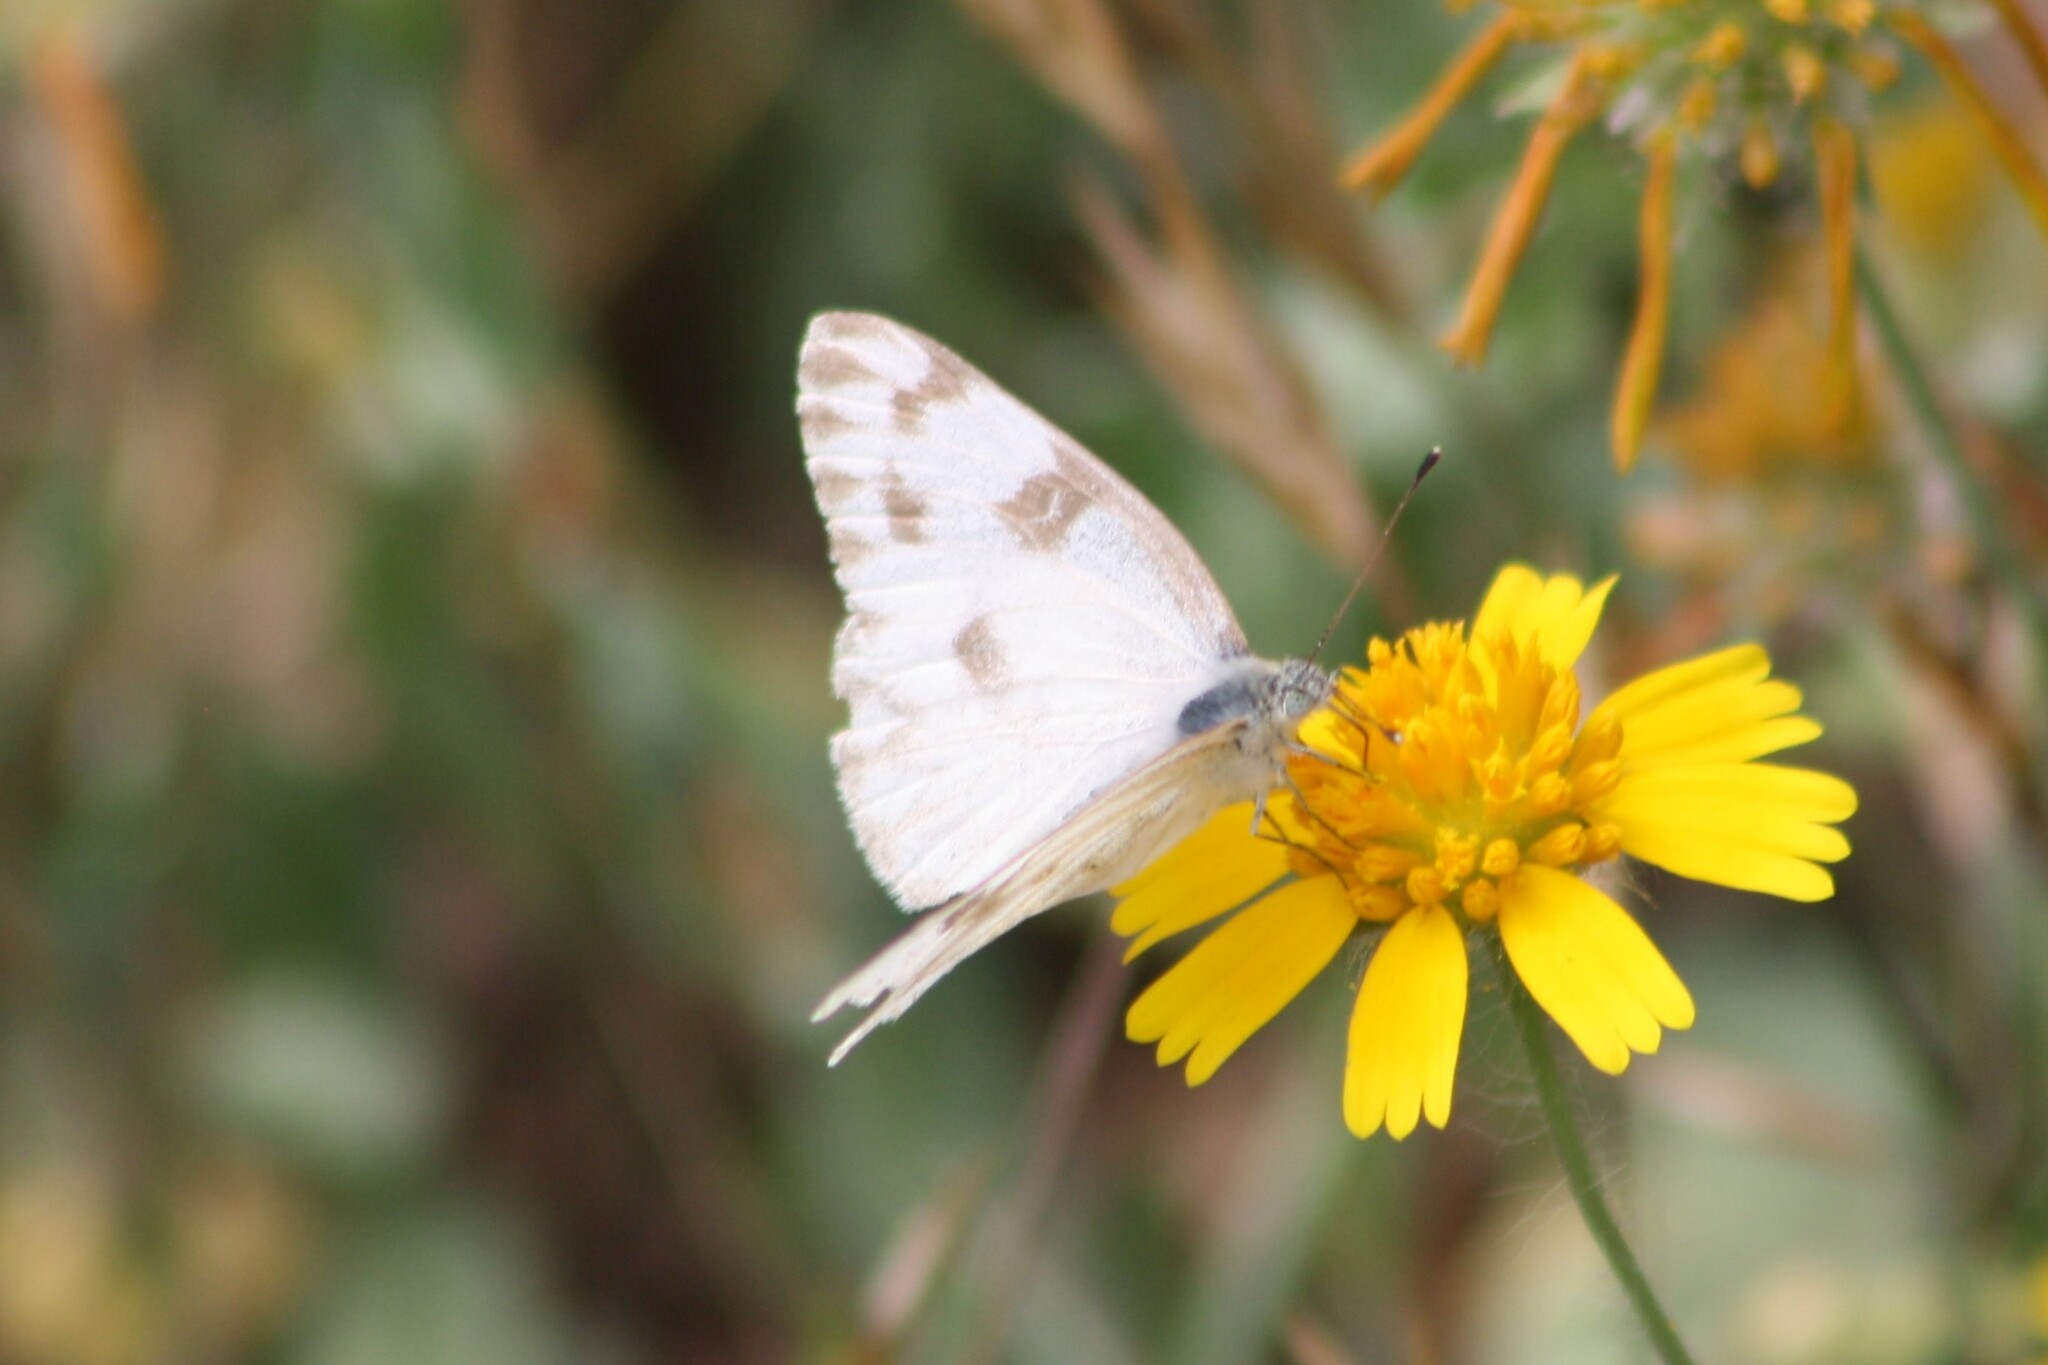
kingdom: Animalia
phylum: Arthropoda
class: Insecta
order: Lepidoptera
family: Pieridae
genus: Pontia
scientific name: Pontia protodice
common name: Checkered white
